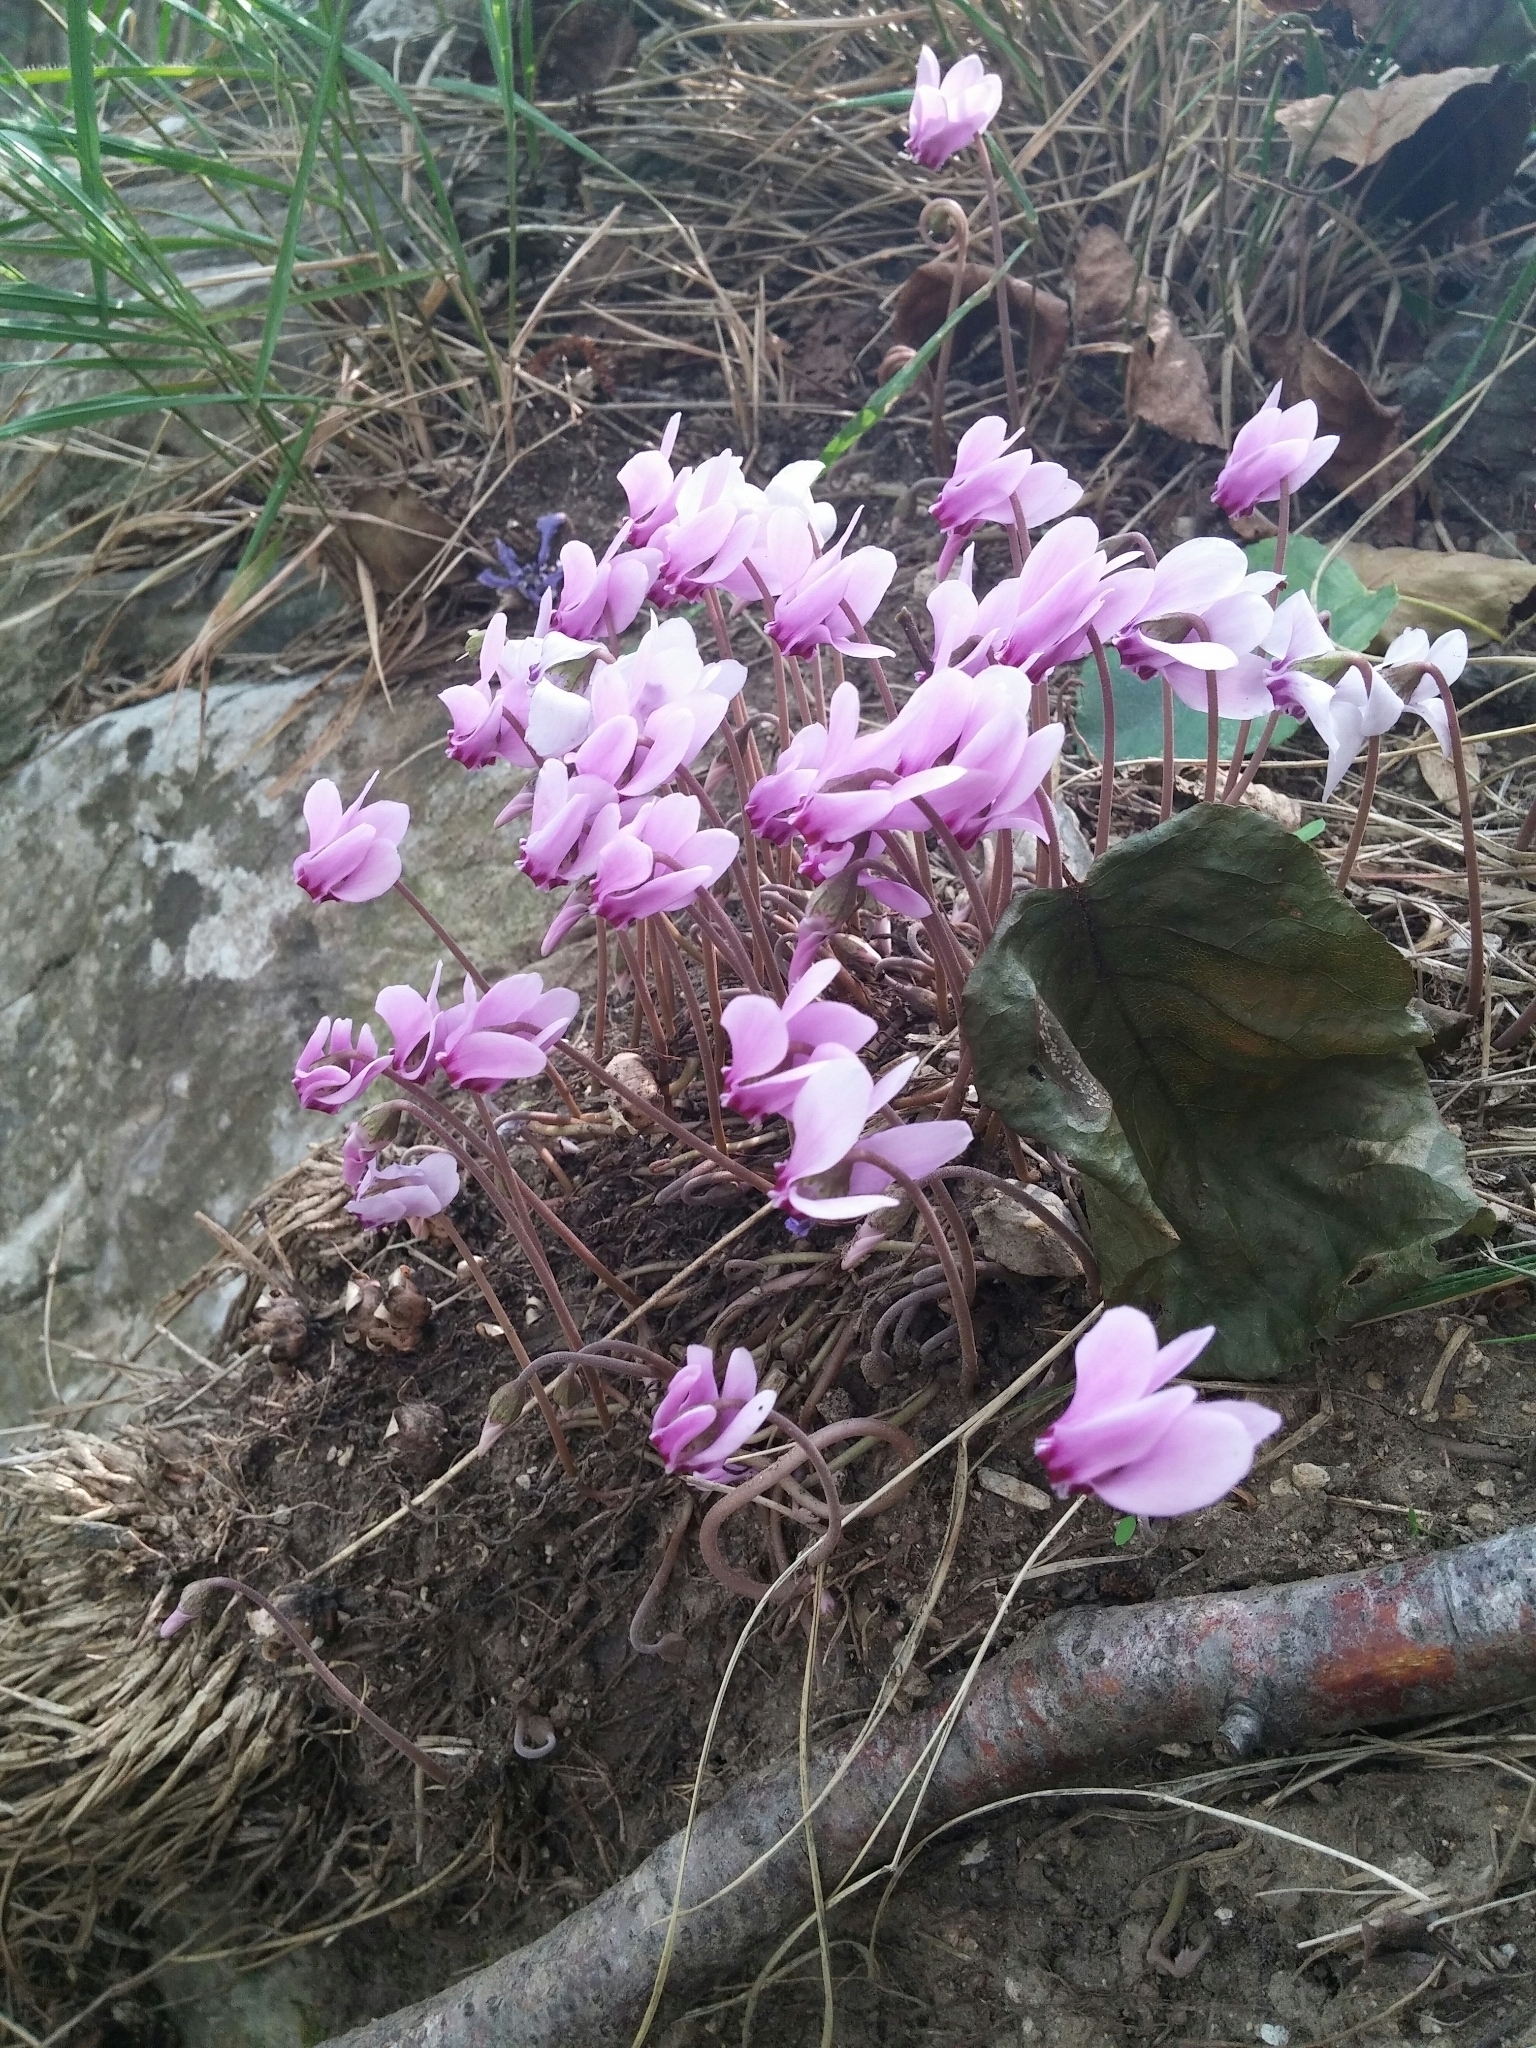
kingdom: Plantae
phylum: Tracheophyta
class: Magnoliopsida
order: Ericales
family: Primulaceae
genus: Cyclamen
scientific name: Cyclamen hederifolium
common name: Sowbread
